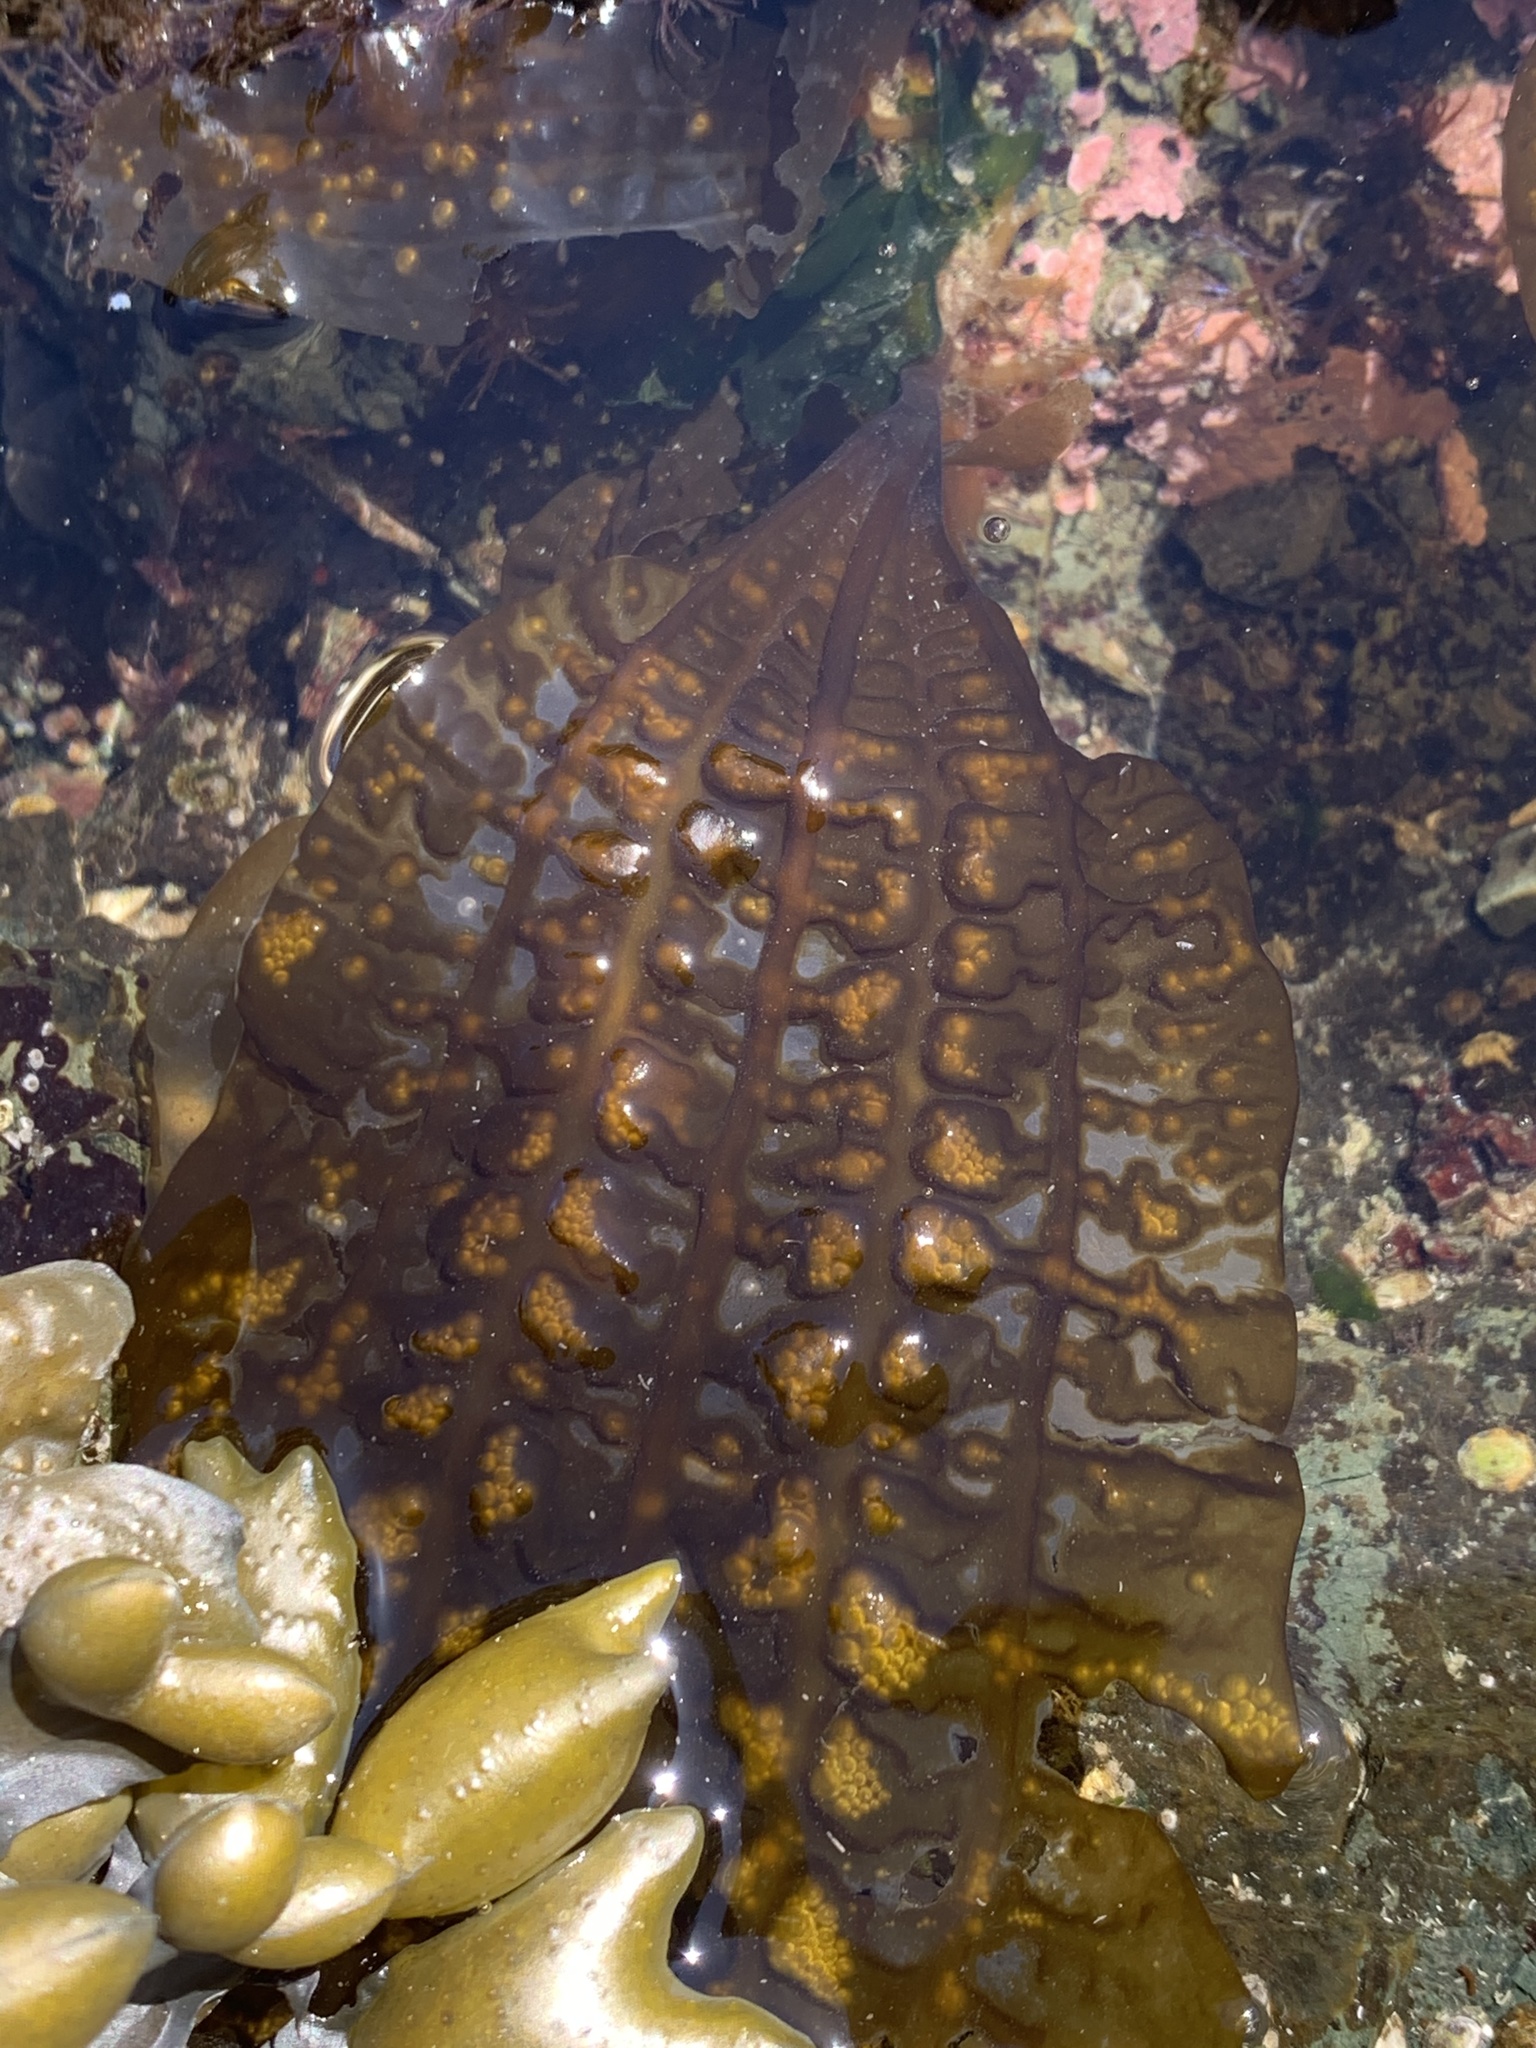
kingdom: Chromista
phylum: Ochrophyta
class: Phaeophyceae
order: Laminariales
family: Costariaceae
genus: Costaria
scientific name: Costaria costata
